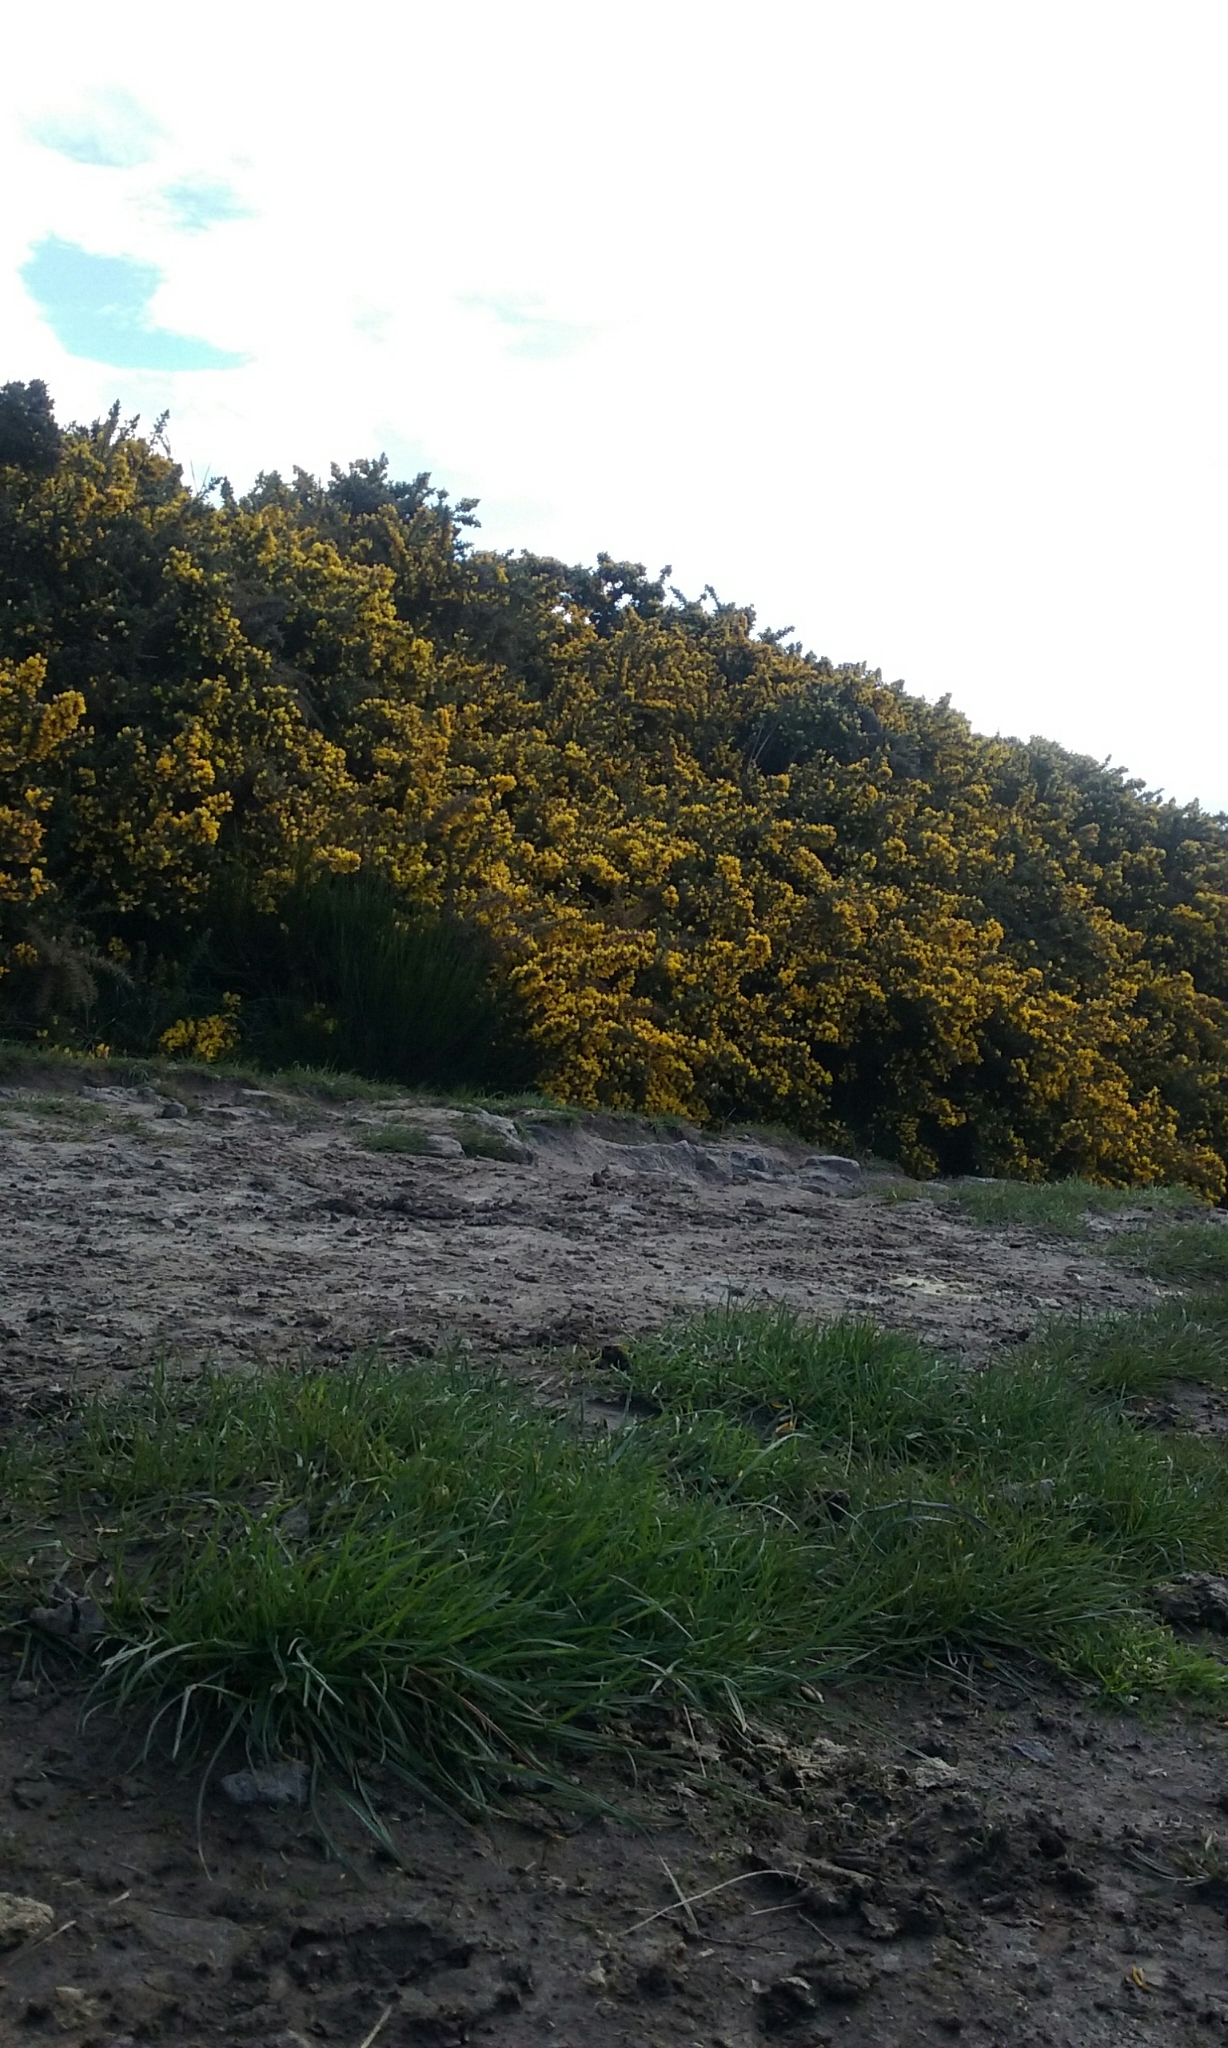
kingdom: Plantae
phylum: Tracheophyta
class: Magnoliopsida
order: Fabales
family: Fabaceae
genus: Ulex
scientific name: Ulex europaeus
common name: Common gorse
